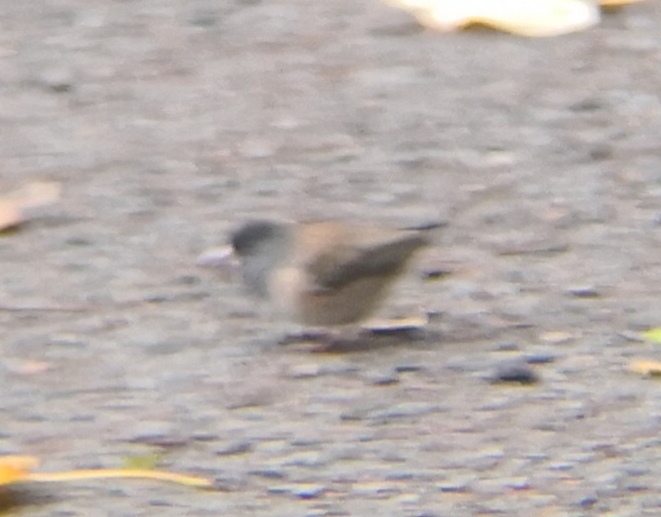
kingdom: Animalia
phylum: Chordata
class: Aves
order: Passeriformes
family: Passerellidae
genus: Junco
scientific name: Junco hyemalis
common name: Dark-eyed junco
